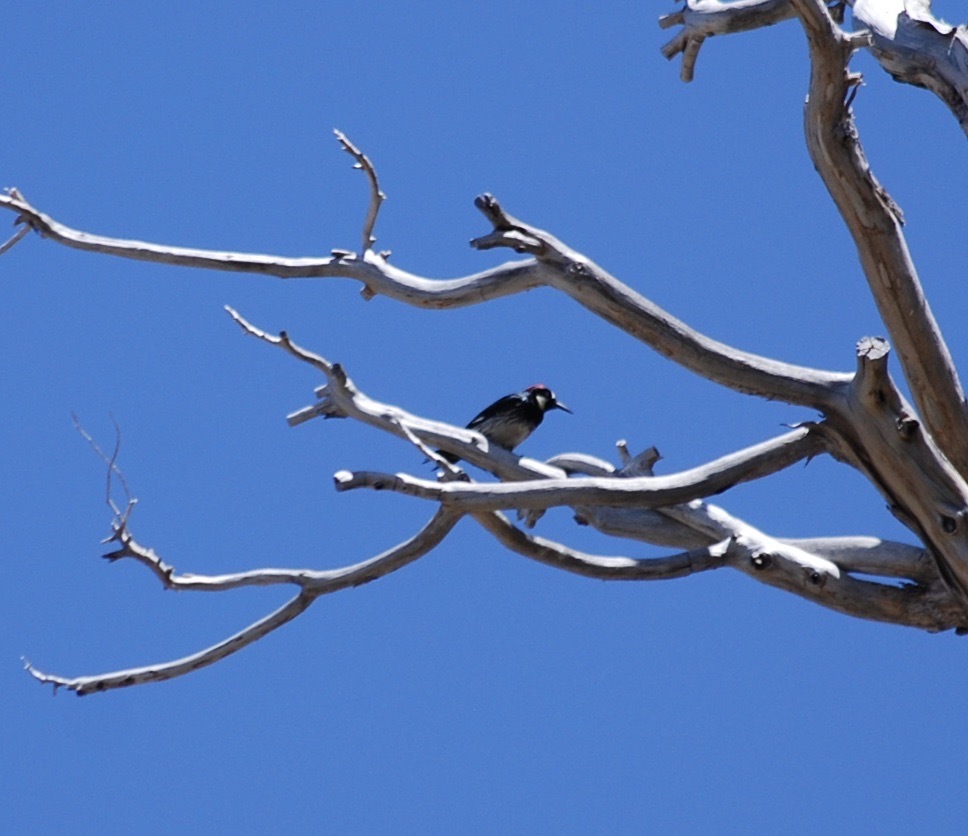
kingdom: Animalia
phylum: Chordata
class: Aves
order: Piciformes
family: Picidae
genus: Melanerpes
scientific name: Melanerpes formicivorus
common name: Acorn woodpecker
